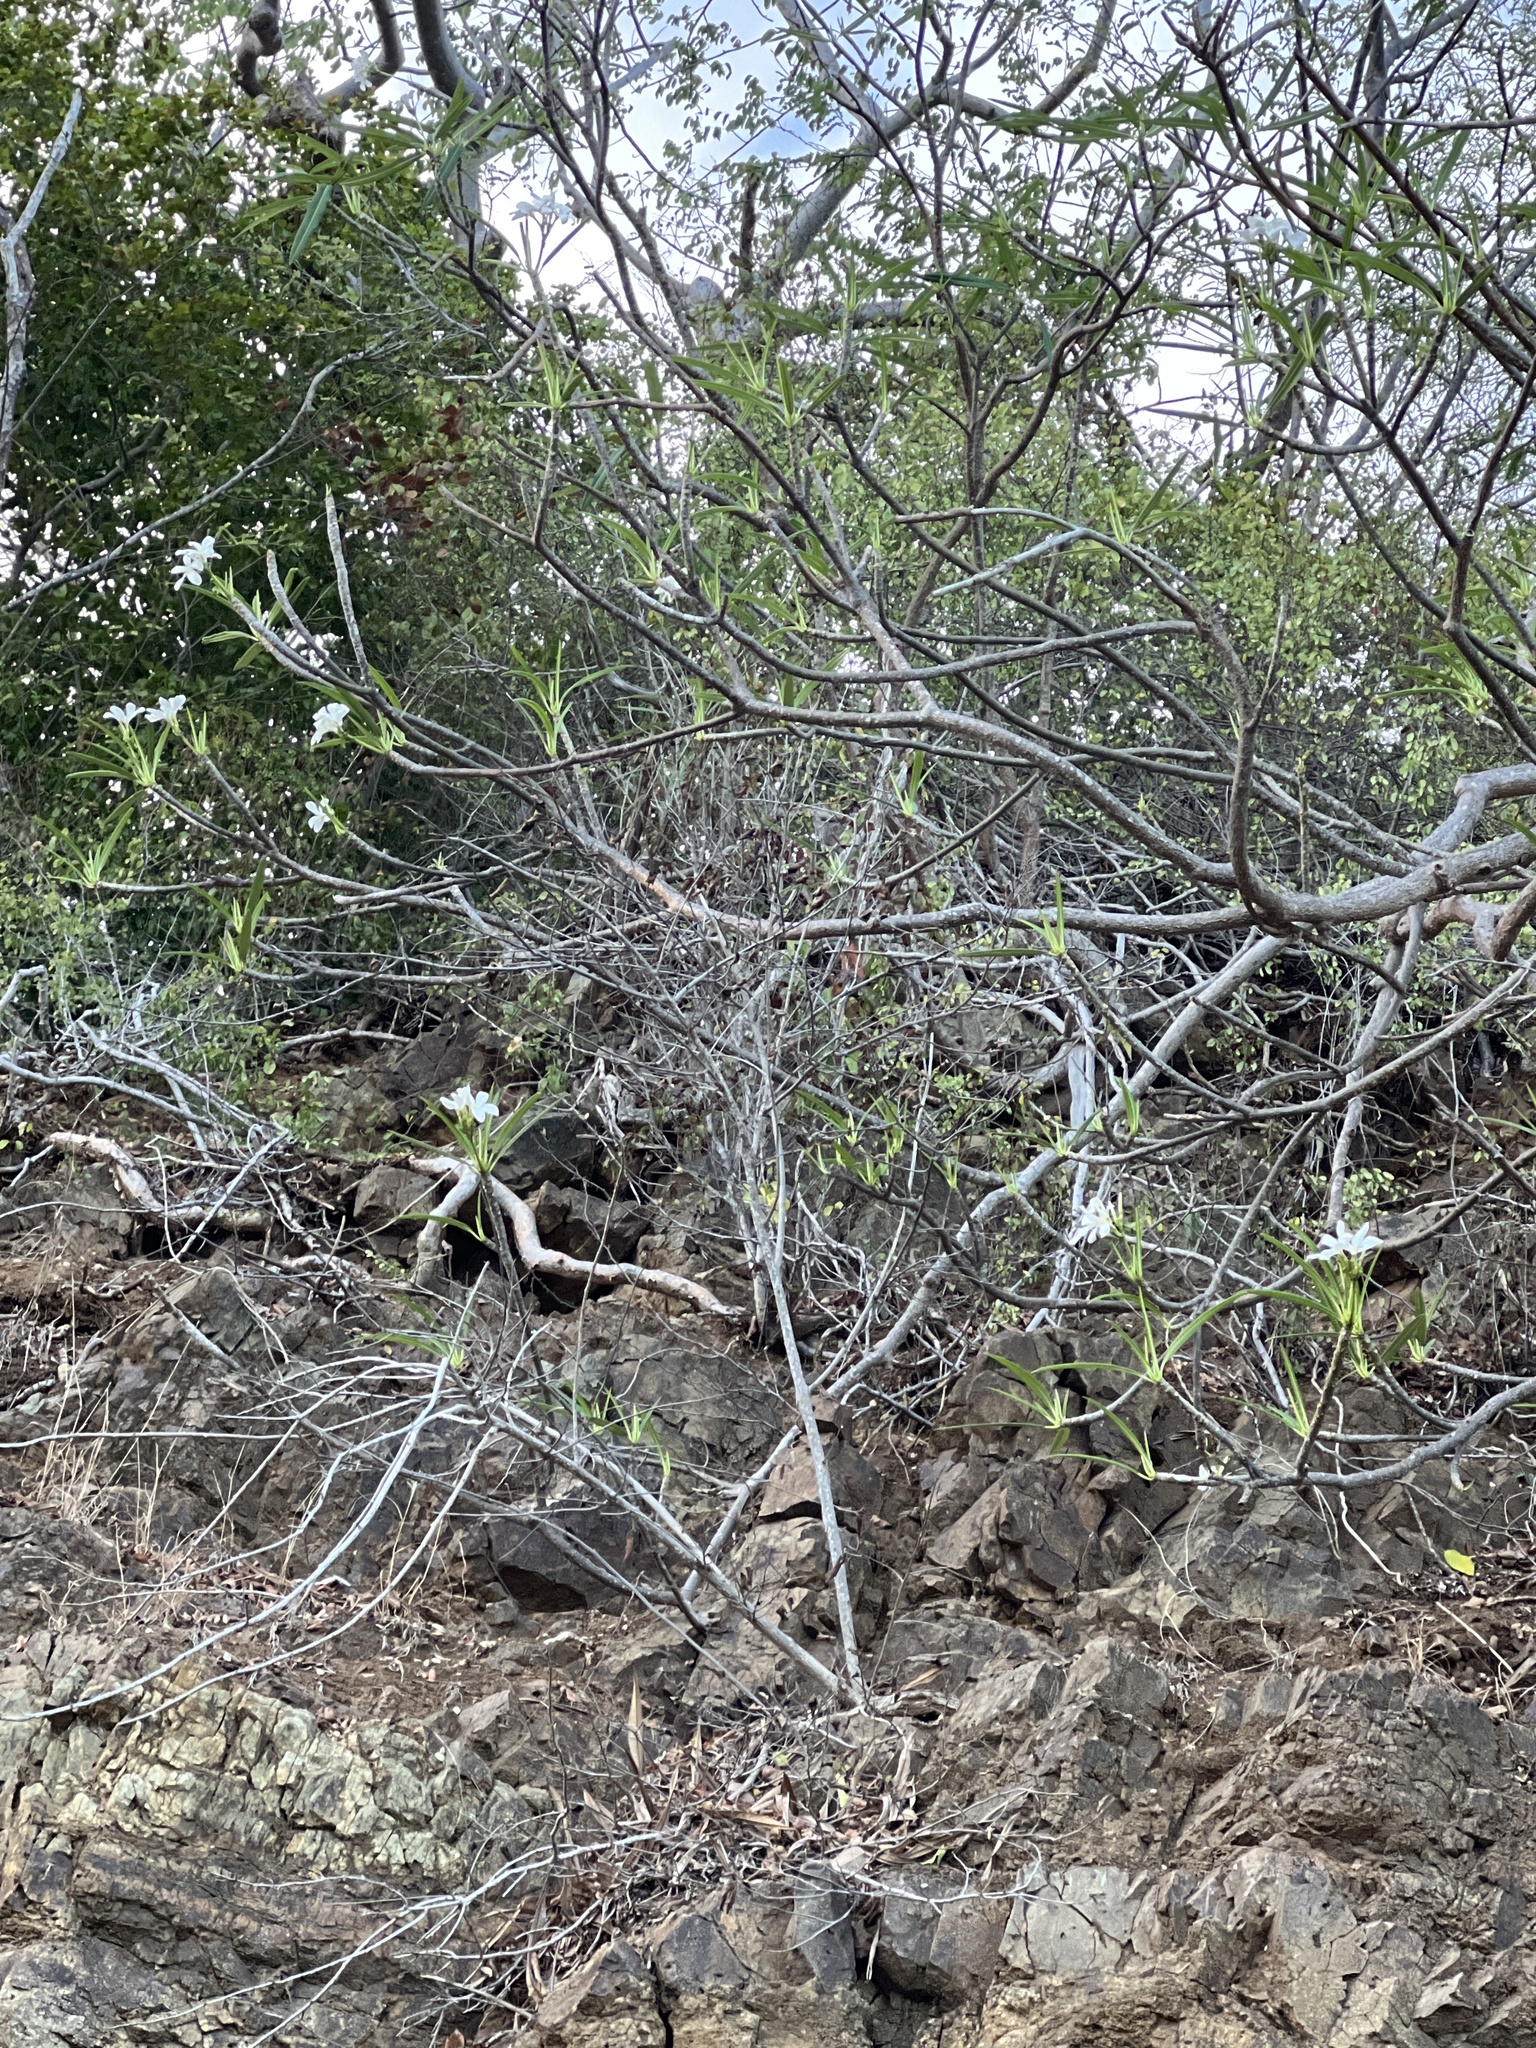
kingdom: Plantae
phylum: Tracheophyta
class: Magnoliopsida
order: Gentianales
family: Apocynaceae
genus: Plumeria
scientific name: Plumeria alba
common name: Wild frangipani
